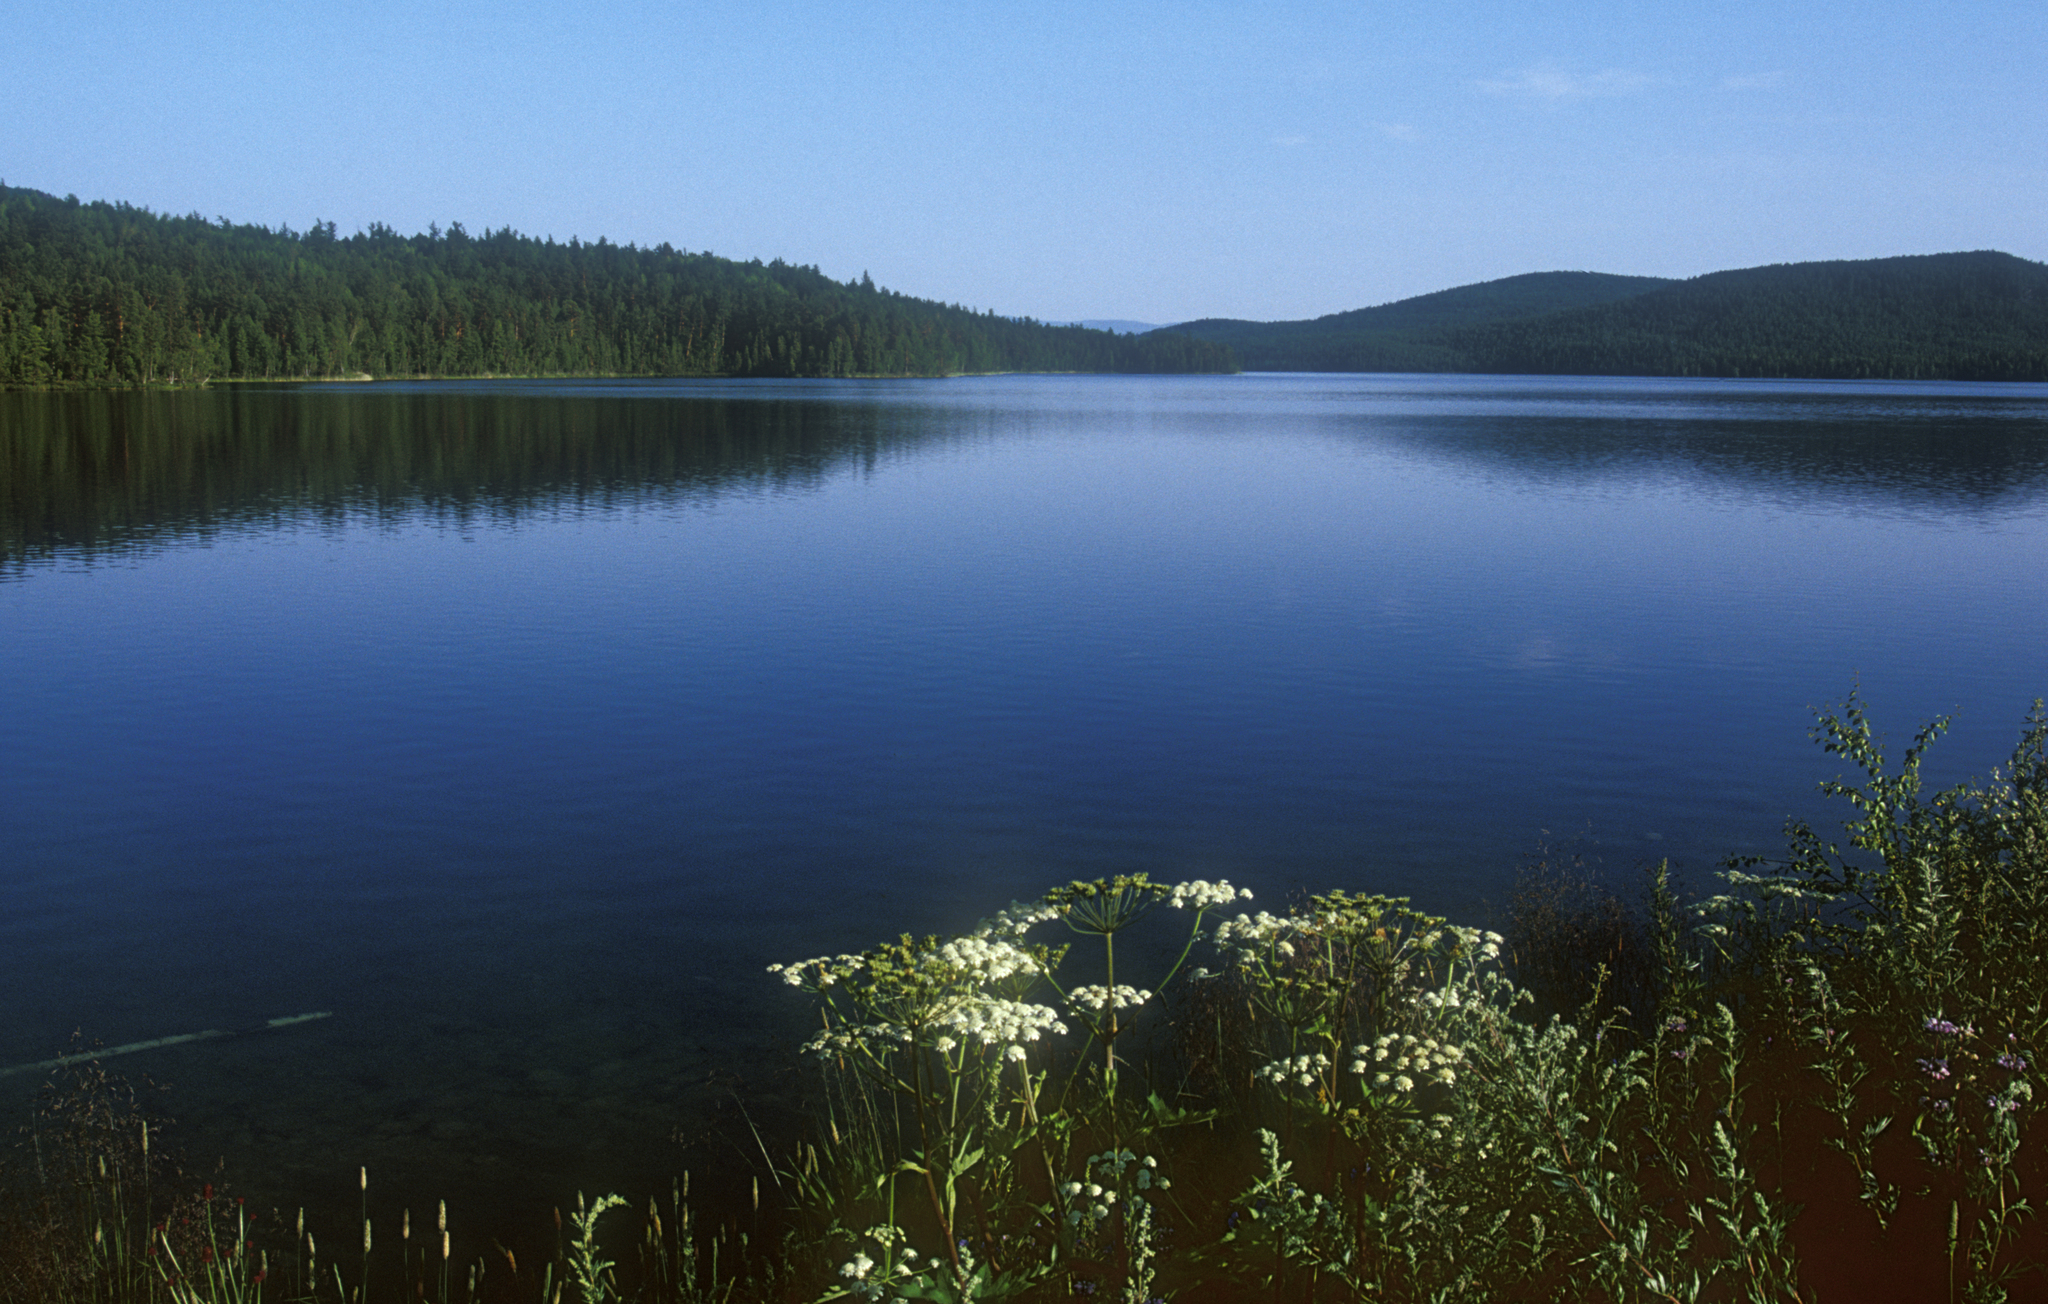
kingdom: Plantae
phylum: Tracheophyta
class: Magnoliopsida
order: Apiales
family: Apiaceae
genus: Heracleum
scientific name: Heracleum dissectum
